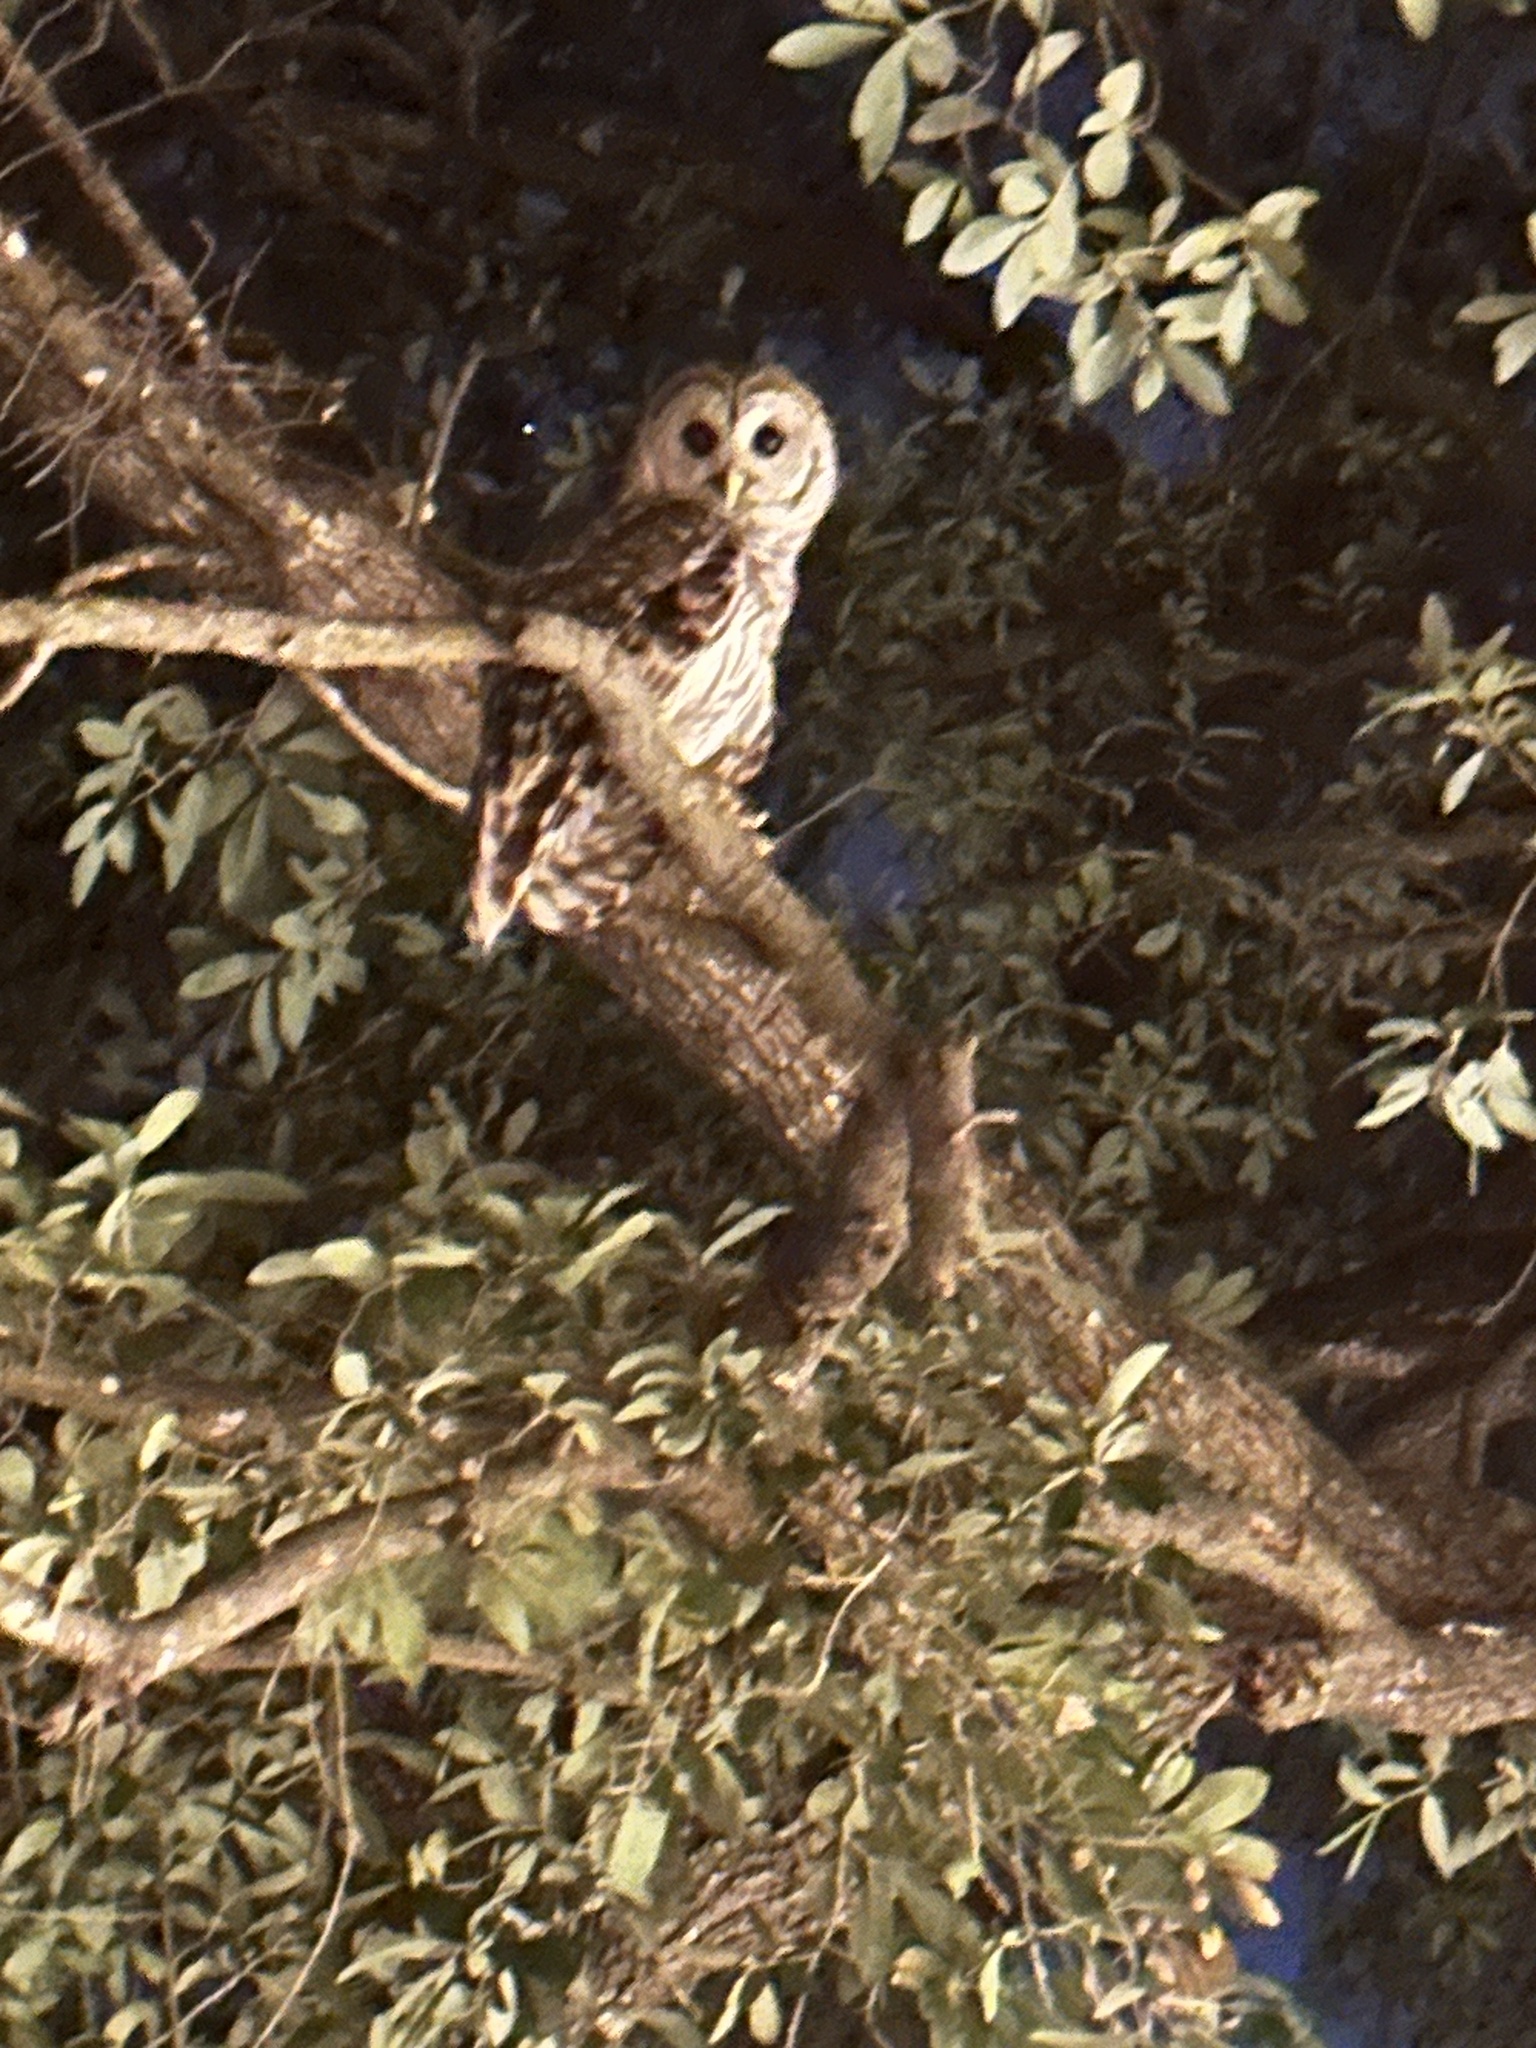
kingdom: Animalia
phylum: Chordata
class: Aves
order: Strigiformes
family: Strigidae
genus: Strix
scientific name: Strix varia
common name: Barred owl
